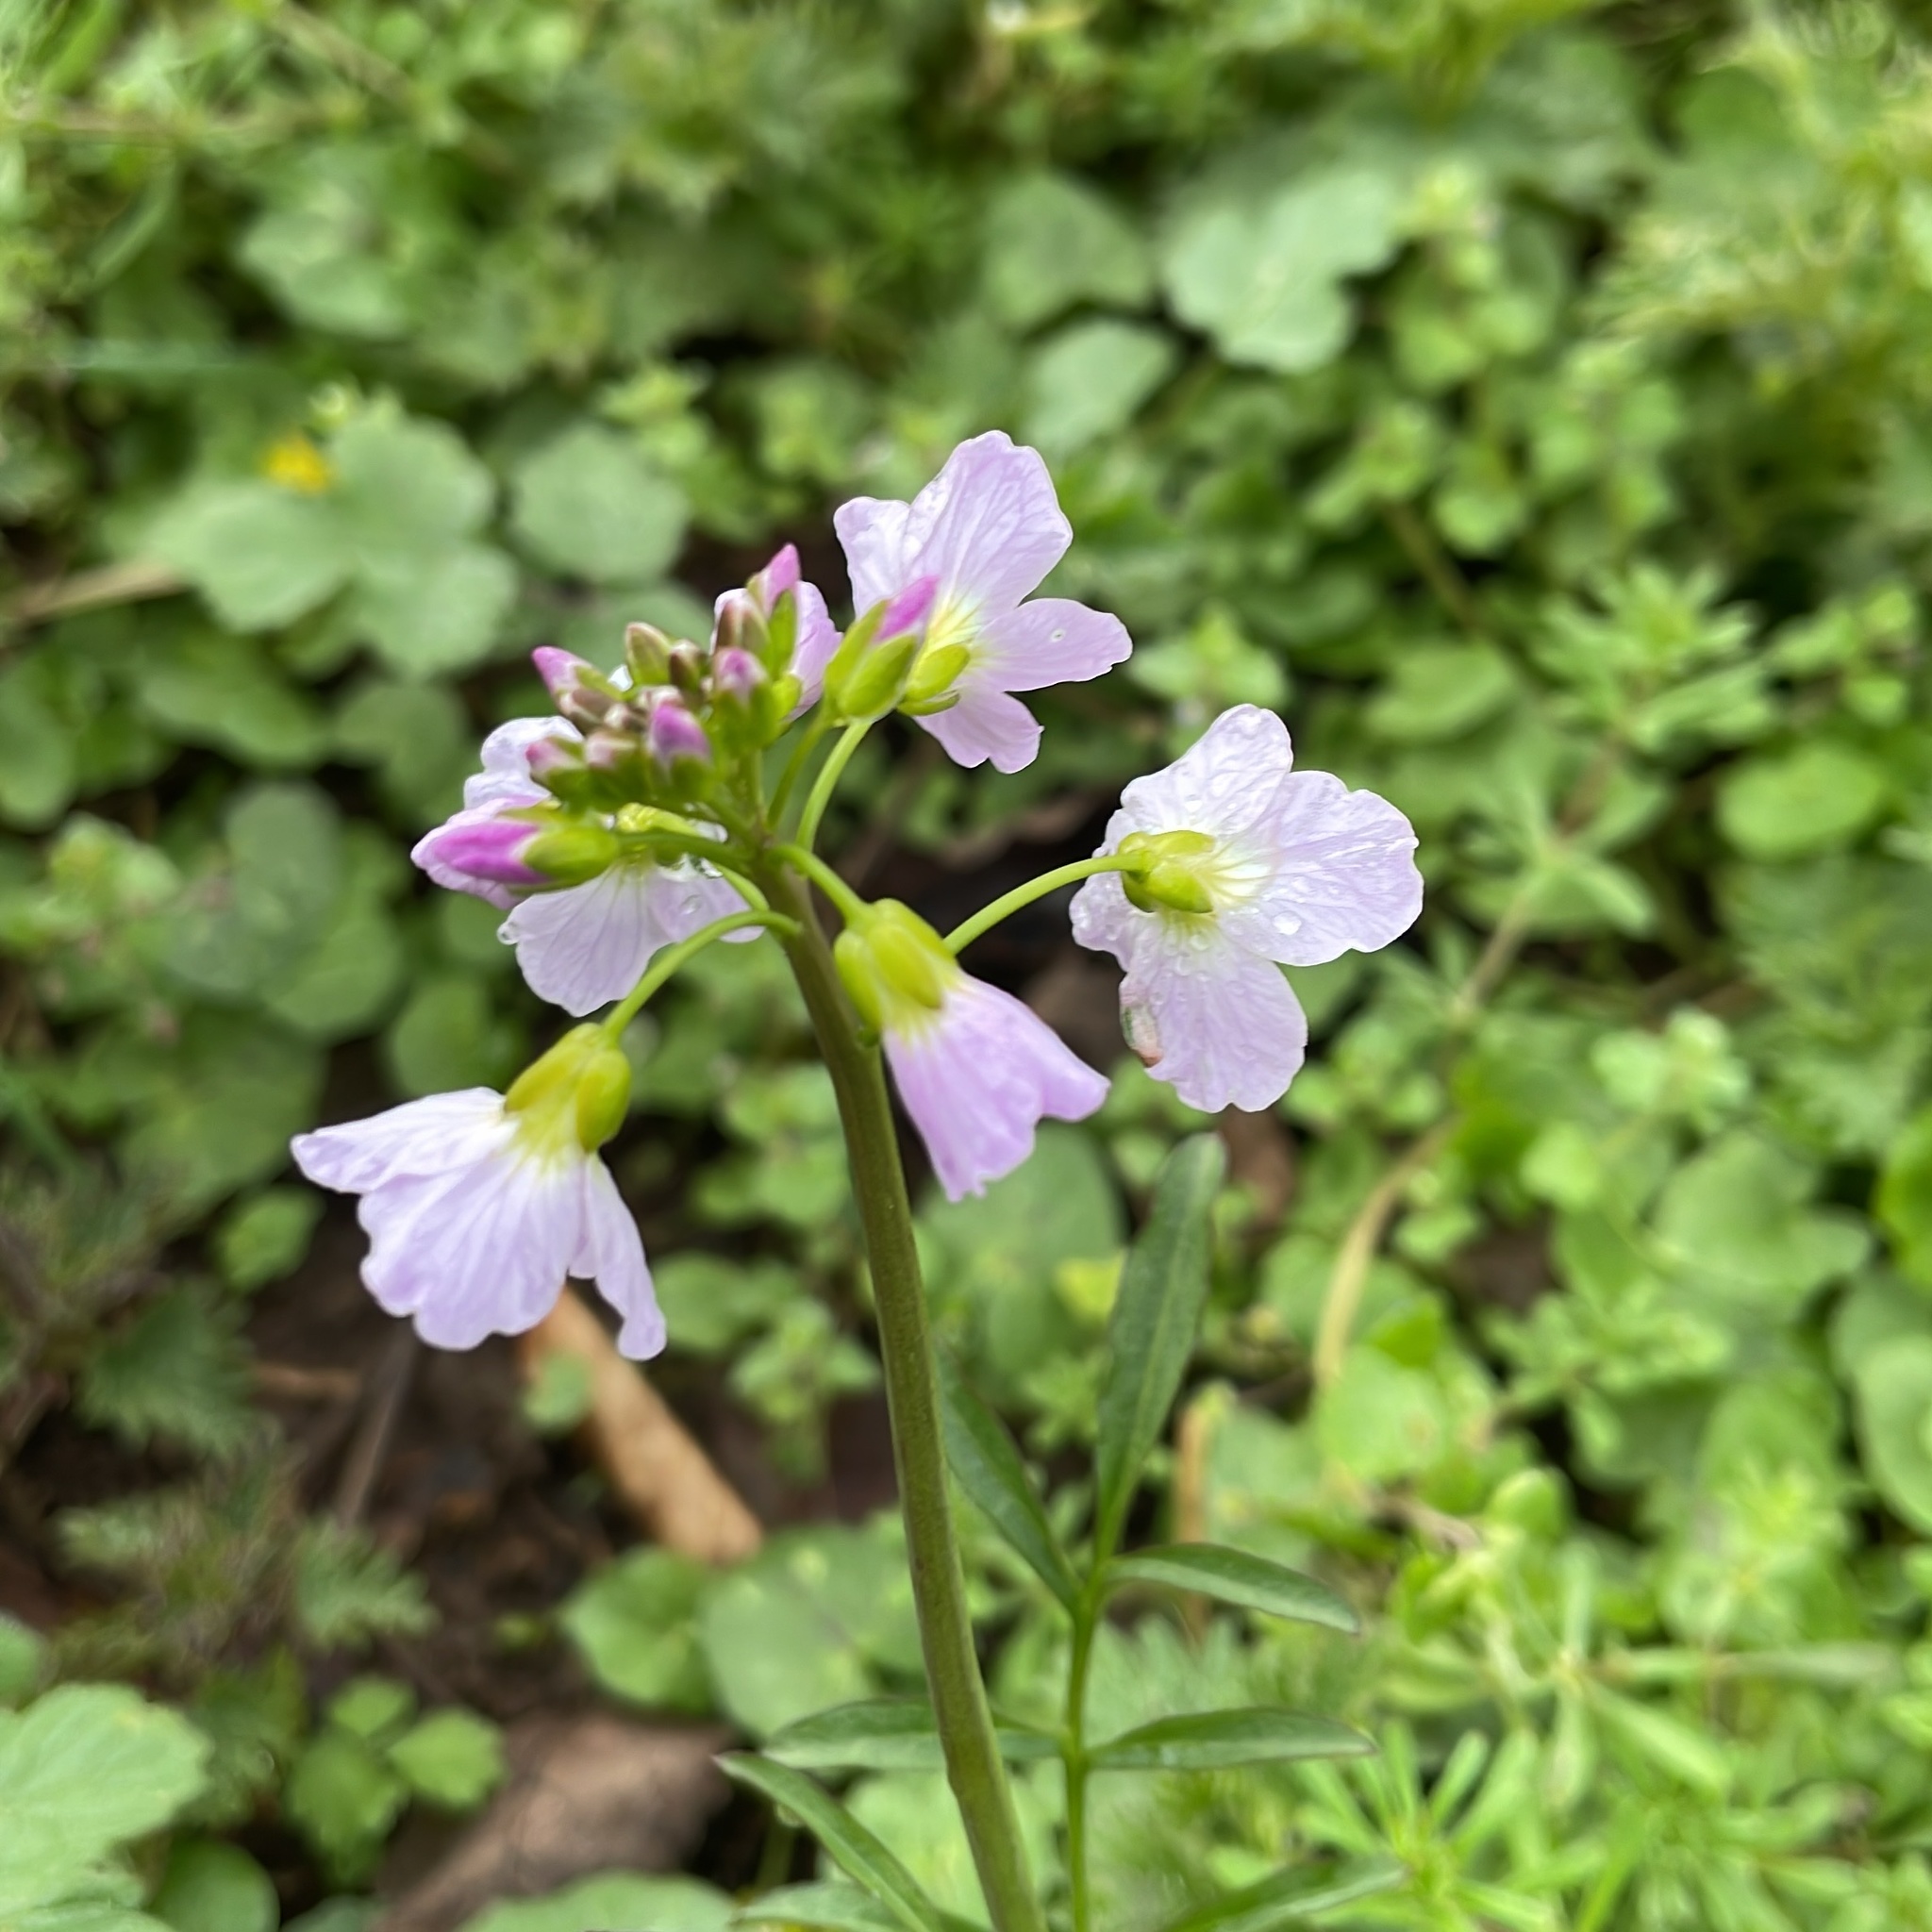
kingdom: Plantae
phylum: Tracheophyta
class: Magnoliopsida
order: Brassicales
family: Brassicaceae
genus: Cardamine
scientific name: Cardamine pratensis
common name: Cuckoo flower
